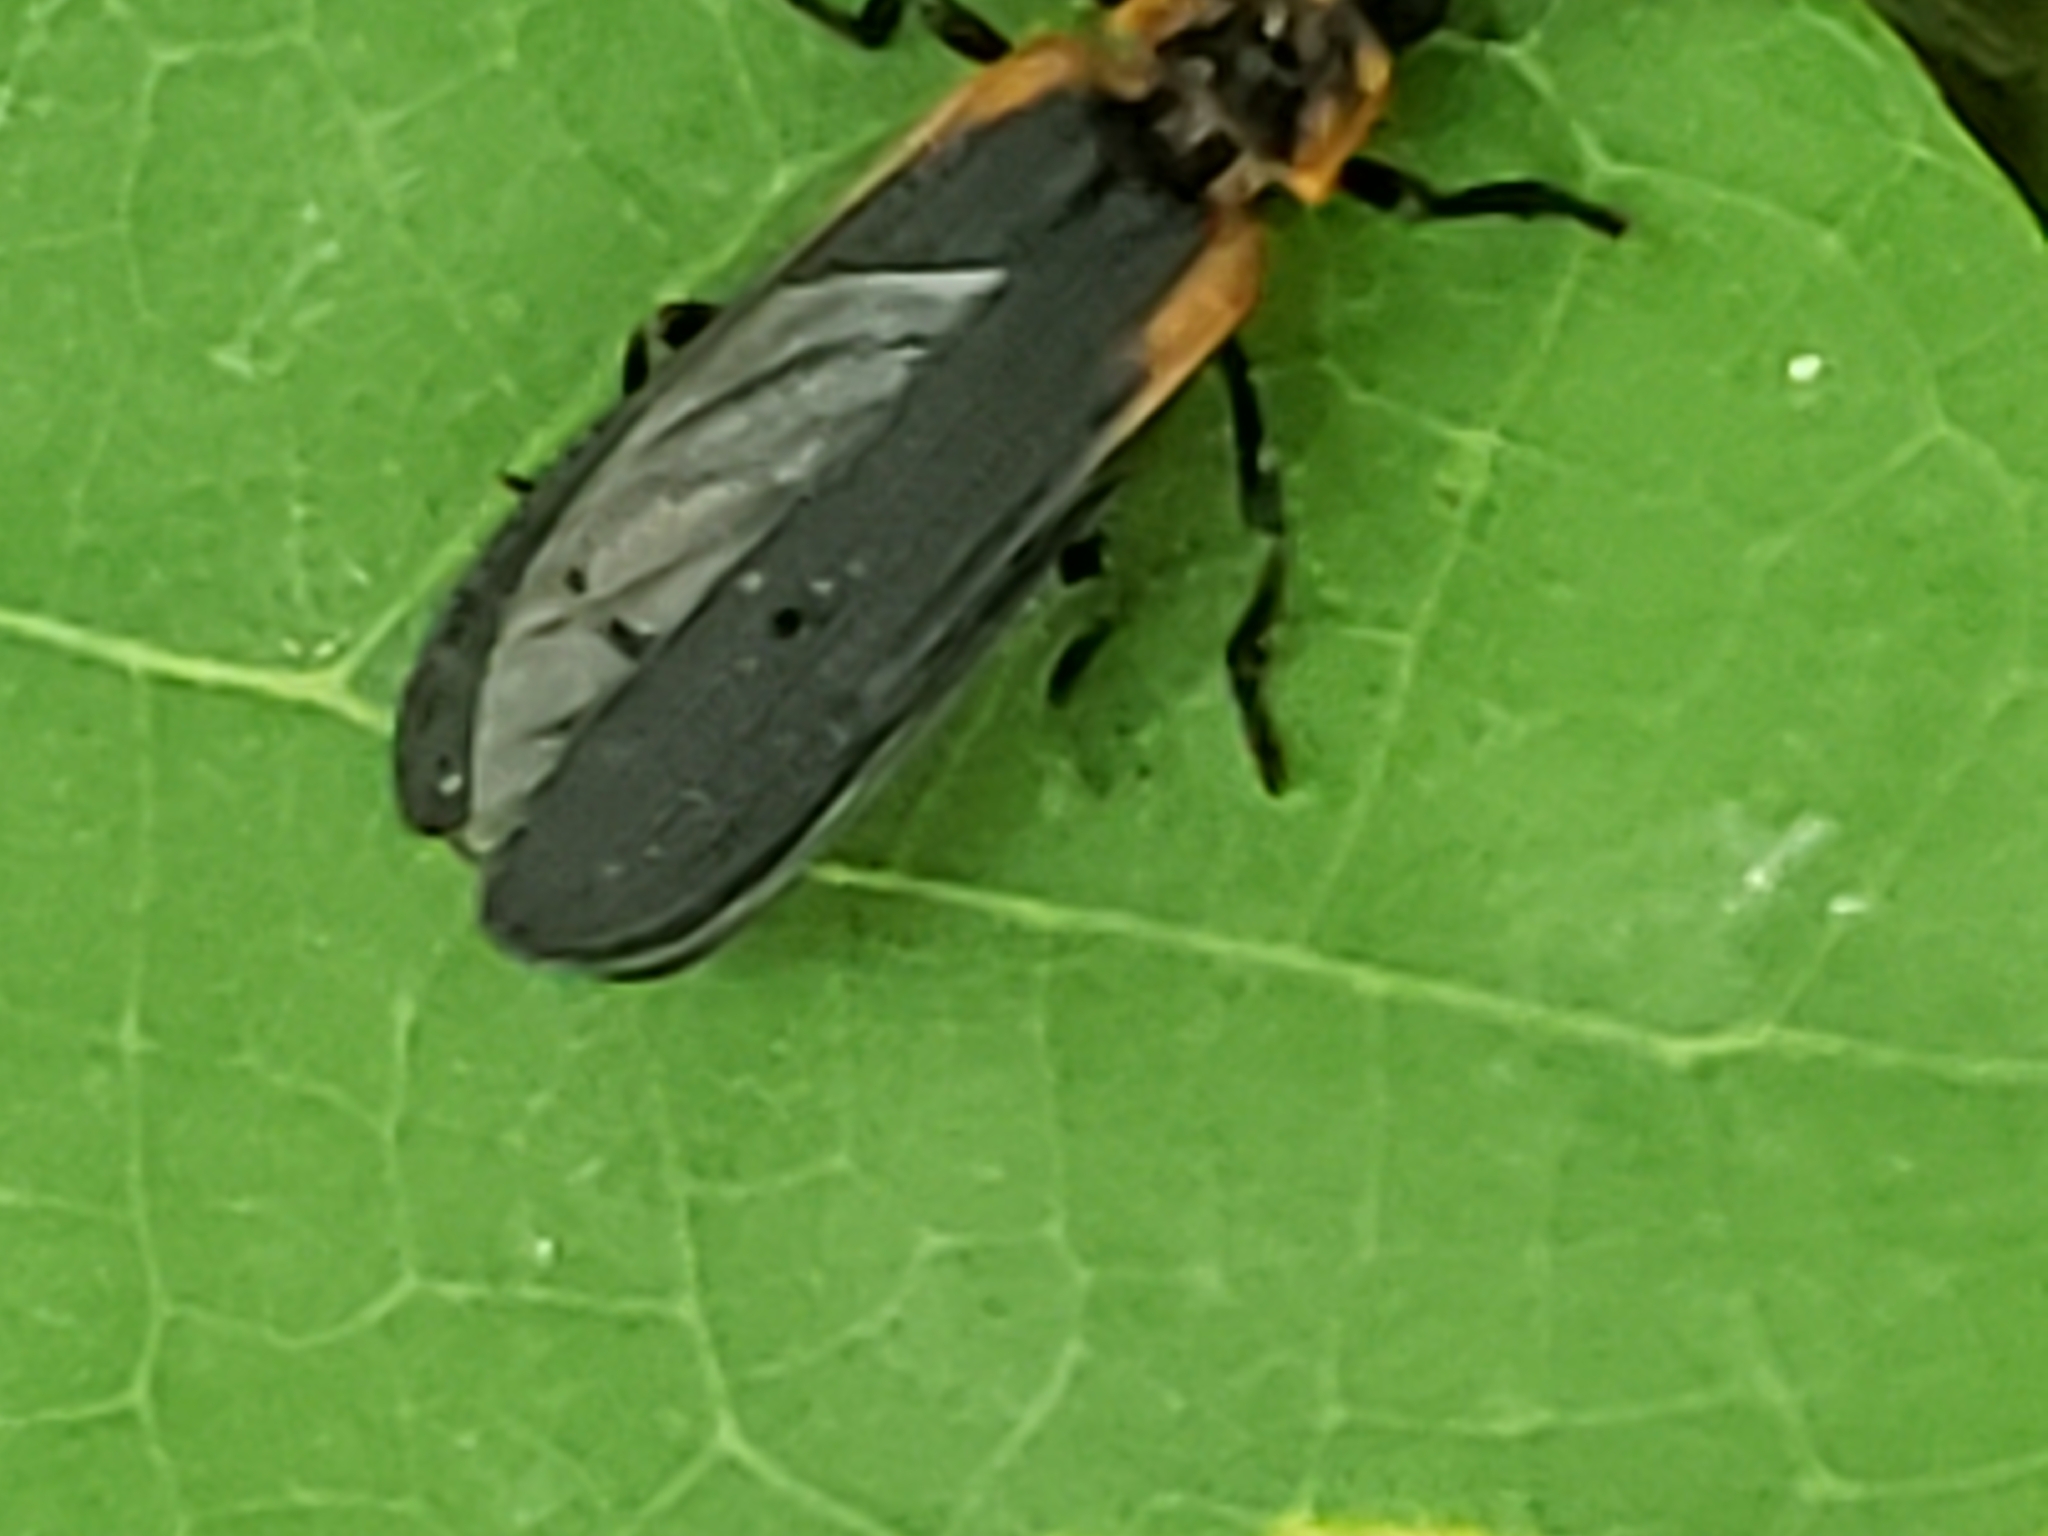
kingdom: Animalia
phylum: Arthropoda
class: Insecta
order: Coleoptera
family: Lycidae
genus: Eros
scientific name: Eros humeralis
